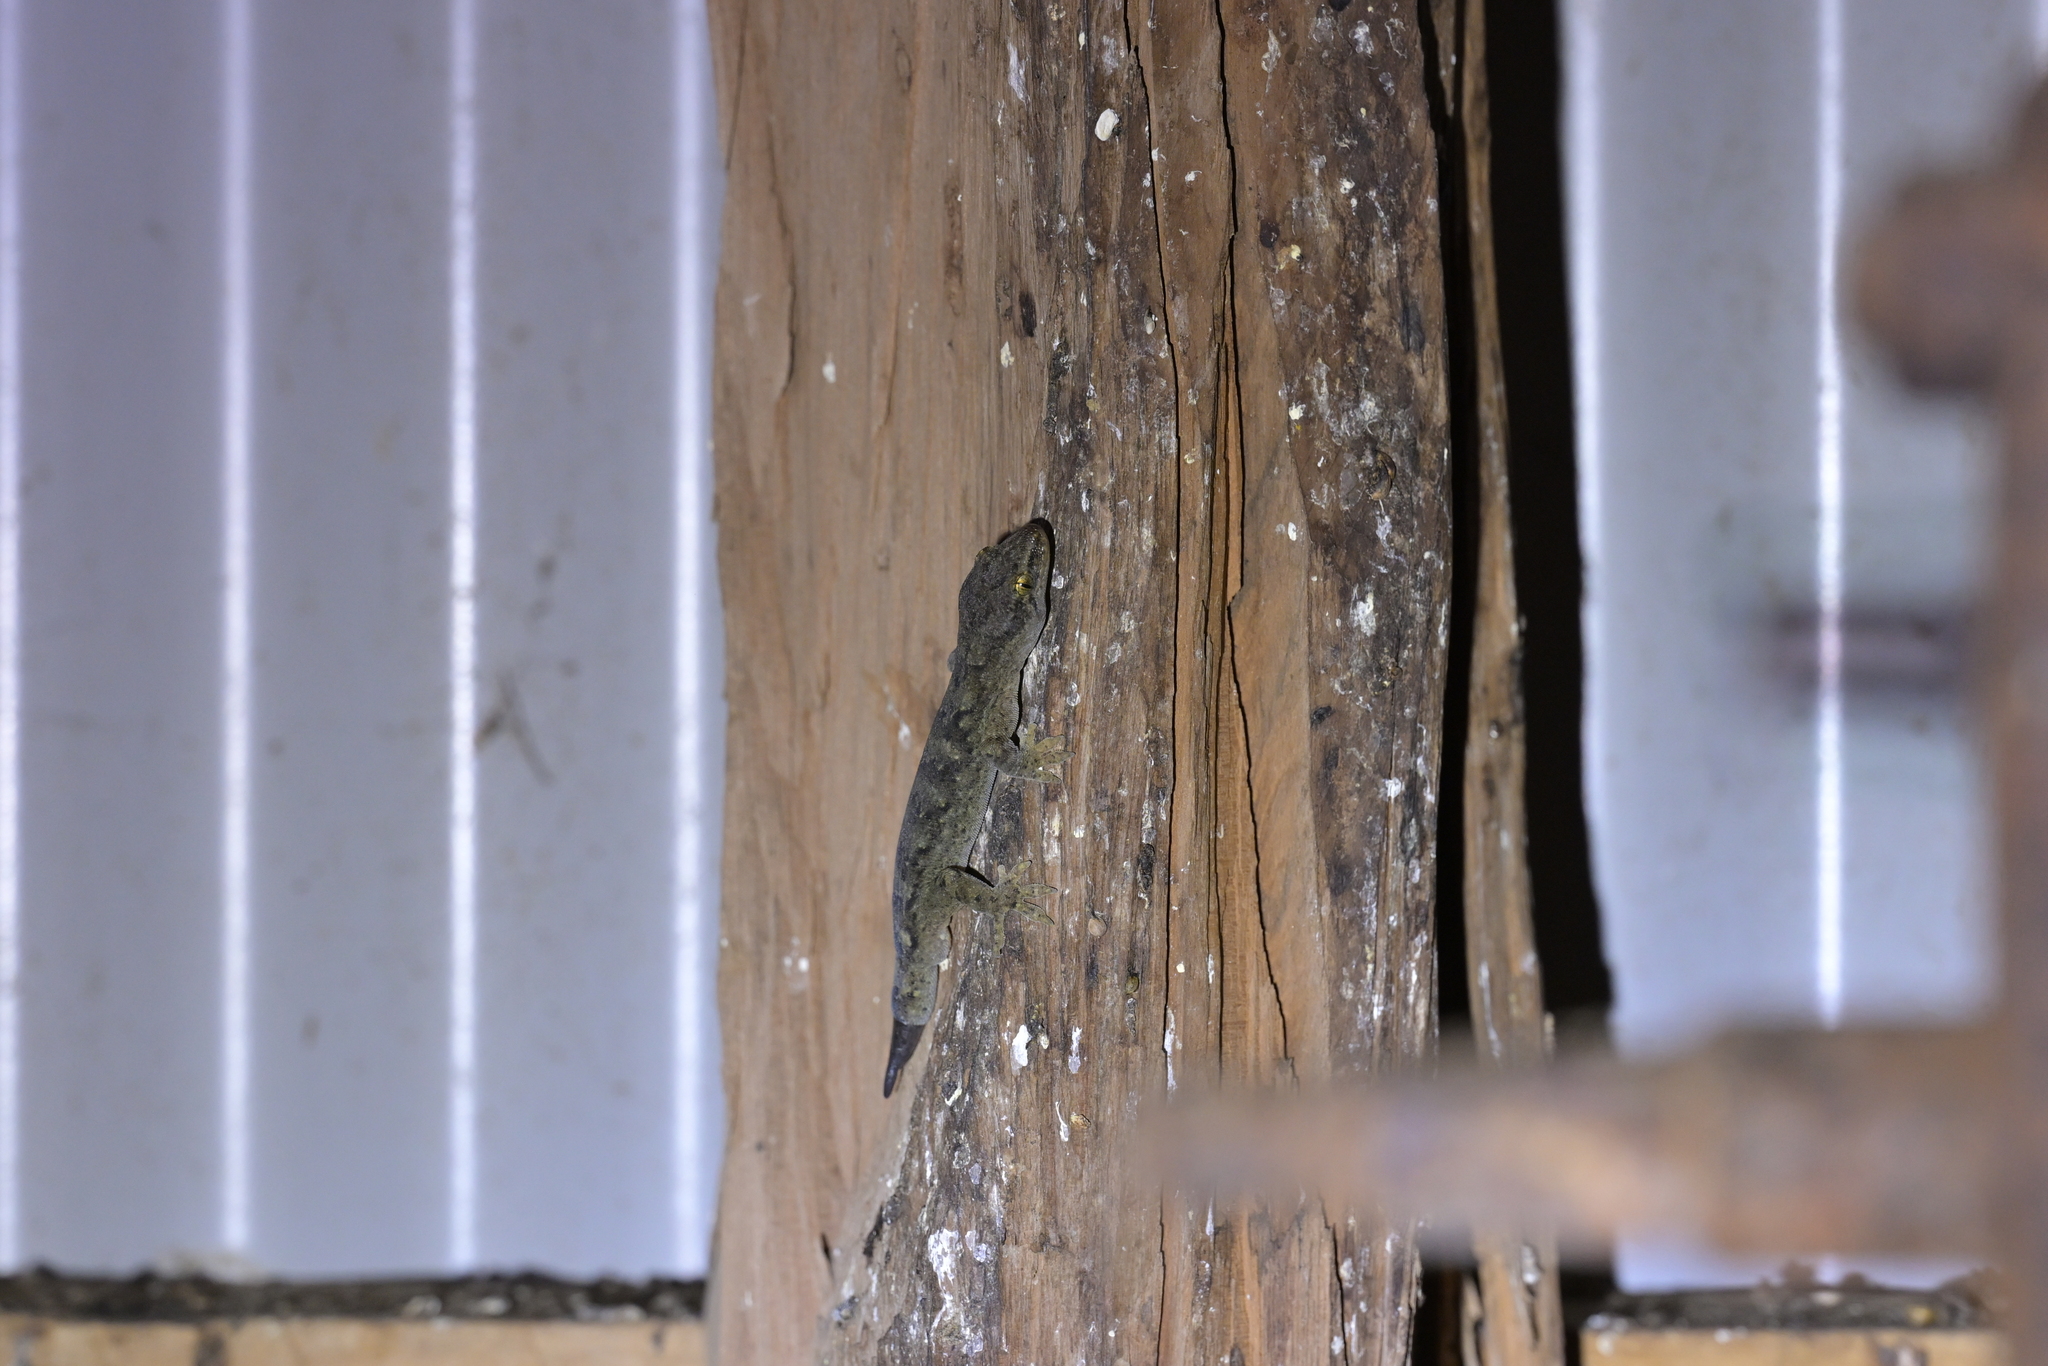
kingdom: Animalia
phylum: Chordata
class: Squamata
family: Diplodactylidae
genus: Woodworthia
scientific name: Woodworthia maculata
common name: Raukawa gecko
